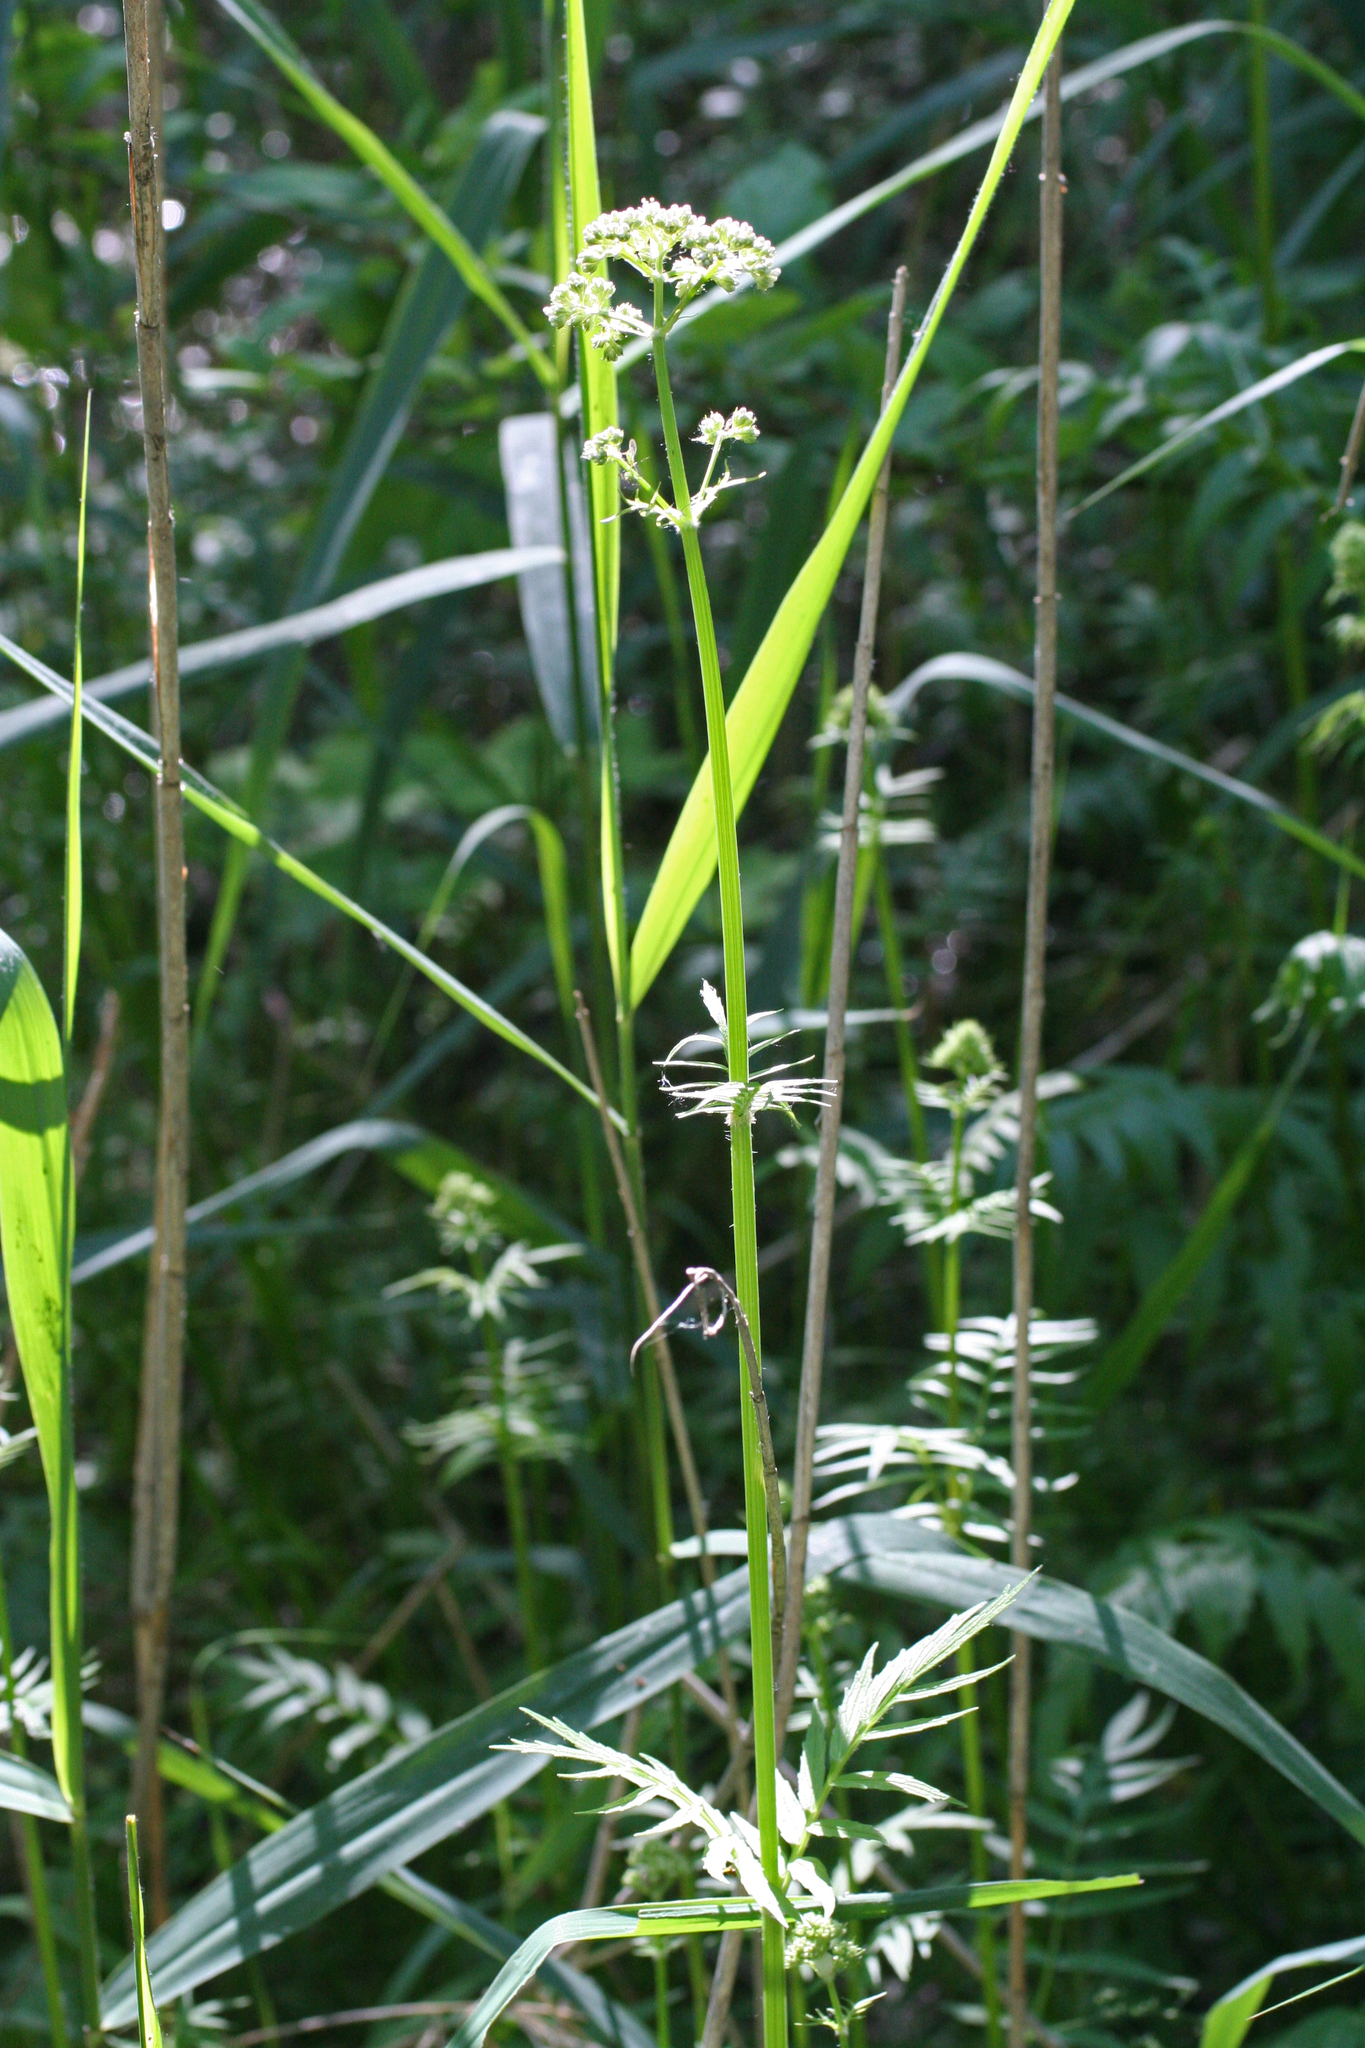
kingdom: Plantae
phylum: Tracheophyta
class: Magnoliopsida
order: Dipsacales
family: Caprifoliaceae
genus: Valeriana
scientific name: Valeriana officinalis
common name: Common valerian
